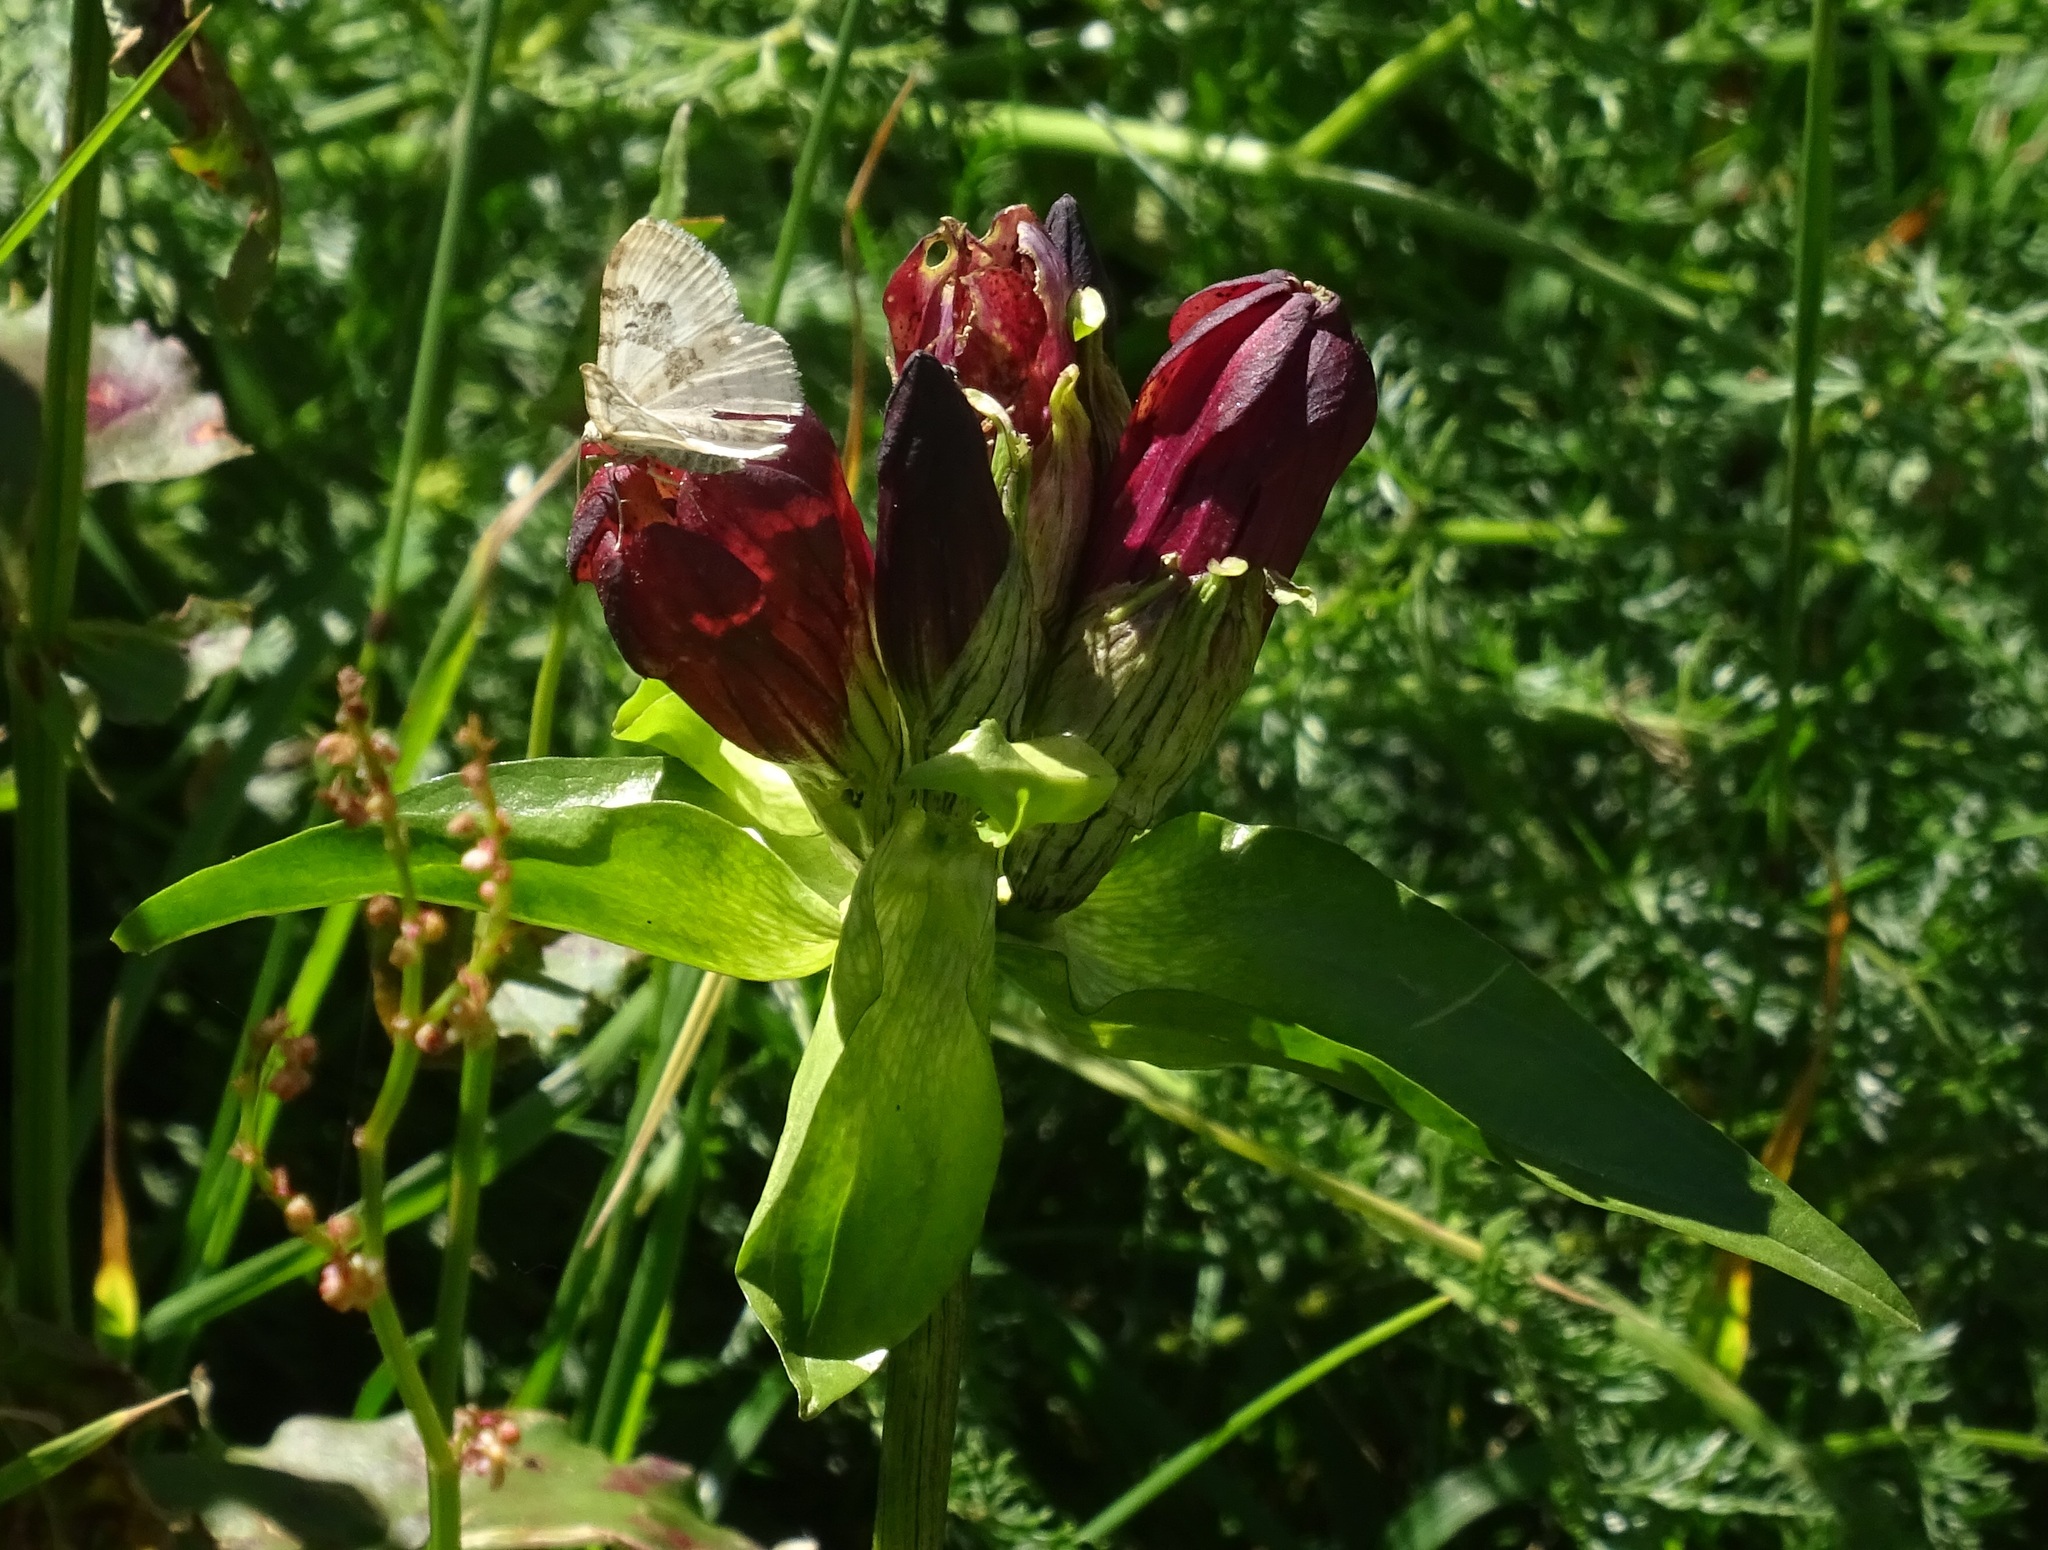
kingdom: Plantae
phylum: Tracheophyta
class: Magnoliopsida
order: Gentianales
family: Gentianaceae
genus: Gentiana
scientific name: Gentiana purpurea
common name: Purple gentian
